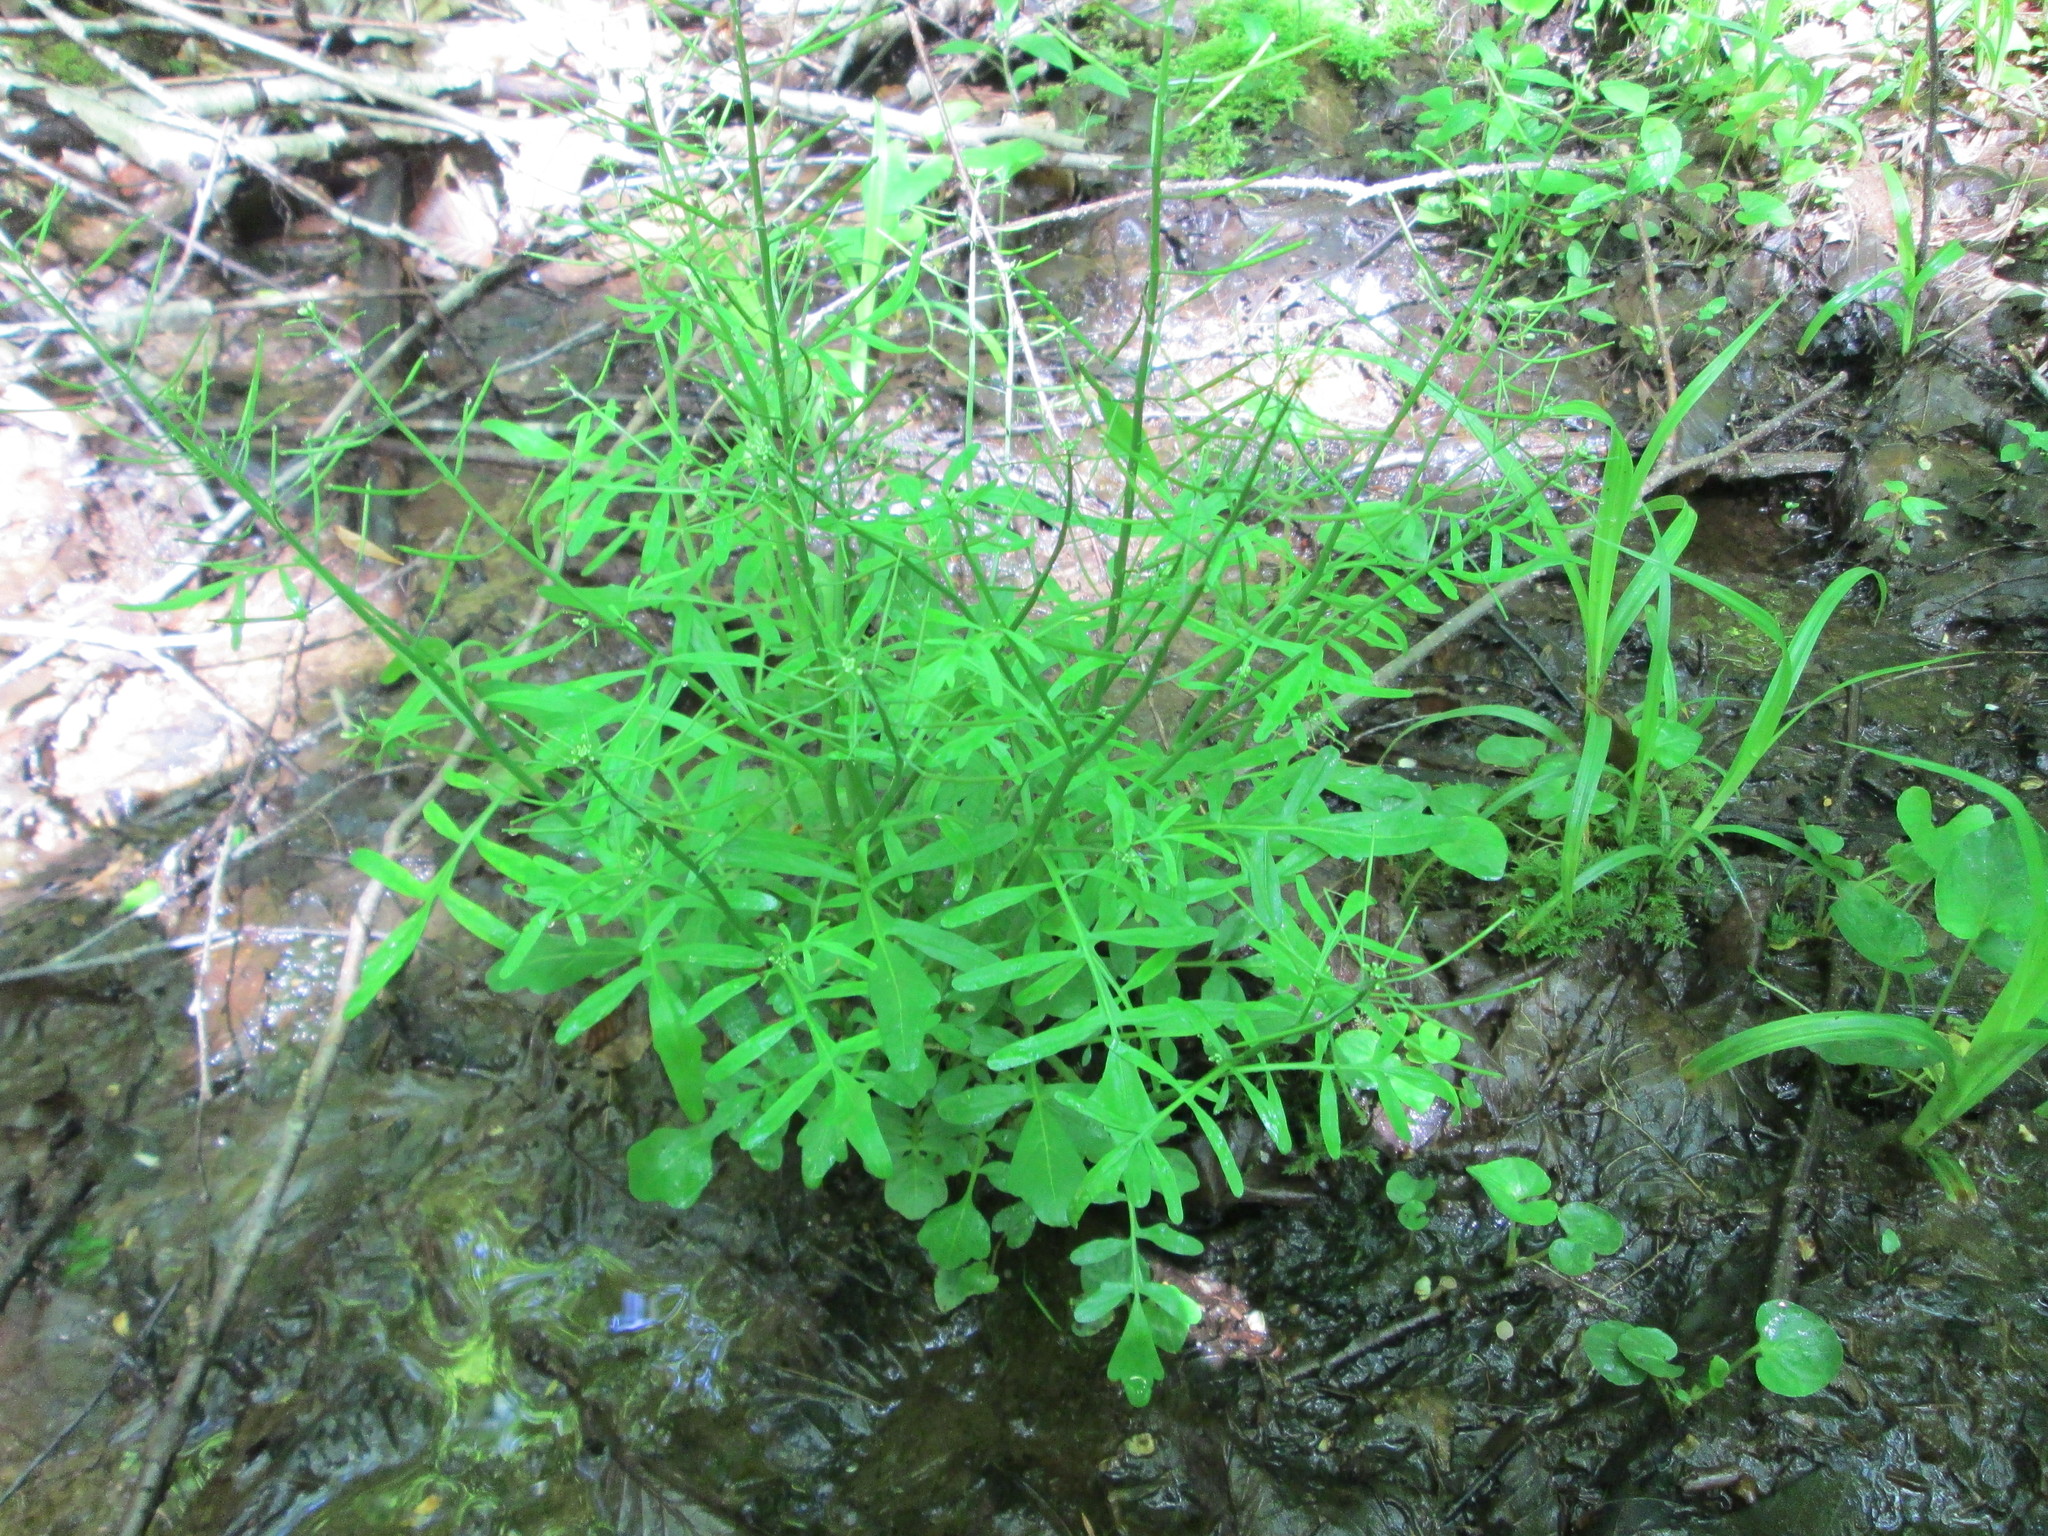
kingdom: Plantae
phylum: Tracheophyta
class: Magnoliopsida
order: Brassicales
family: Brassicaceae
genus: Cardamine
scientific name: Cardamine pensylvanica
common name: Pennsylvania bittercress
